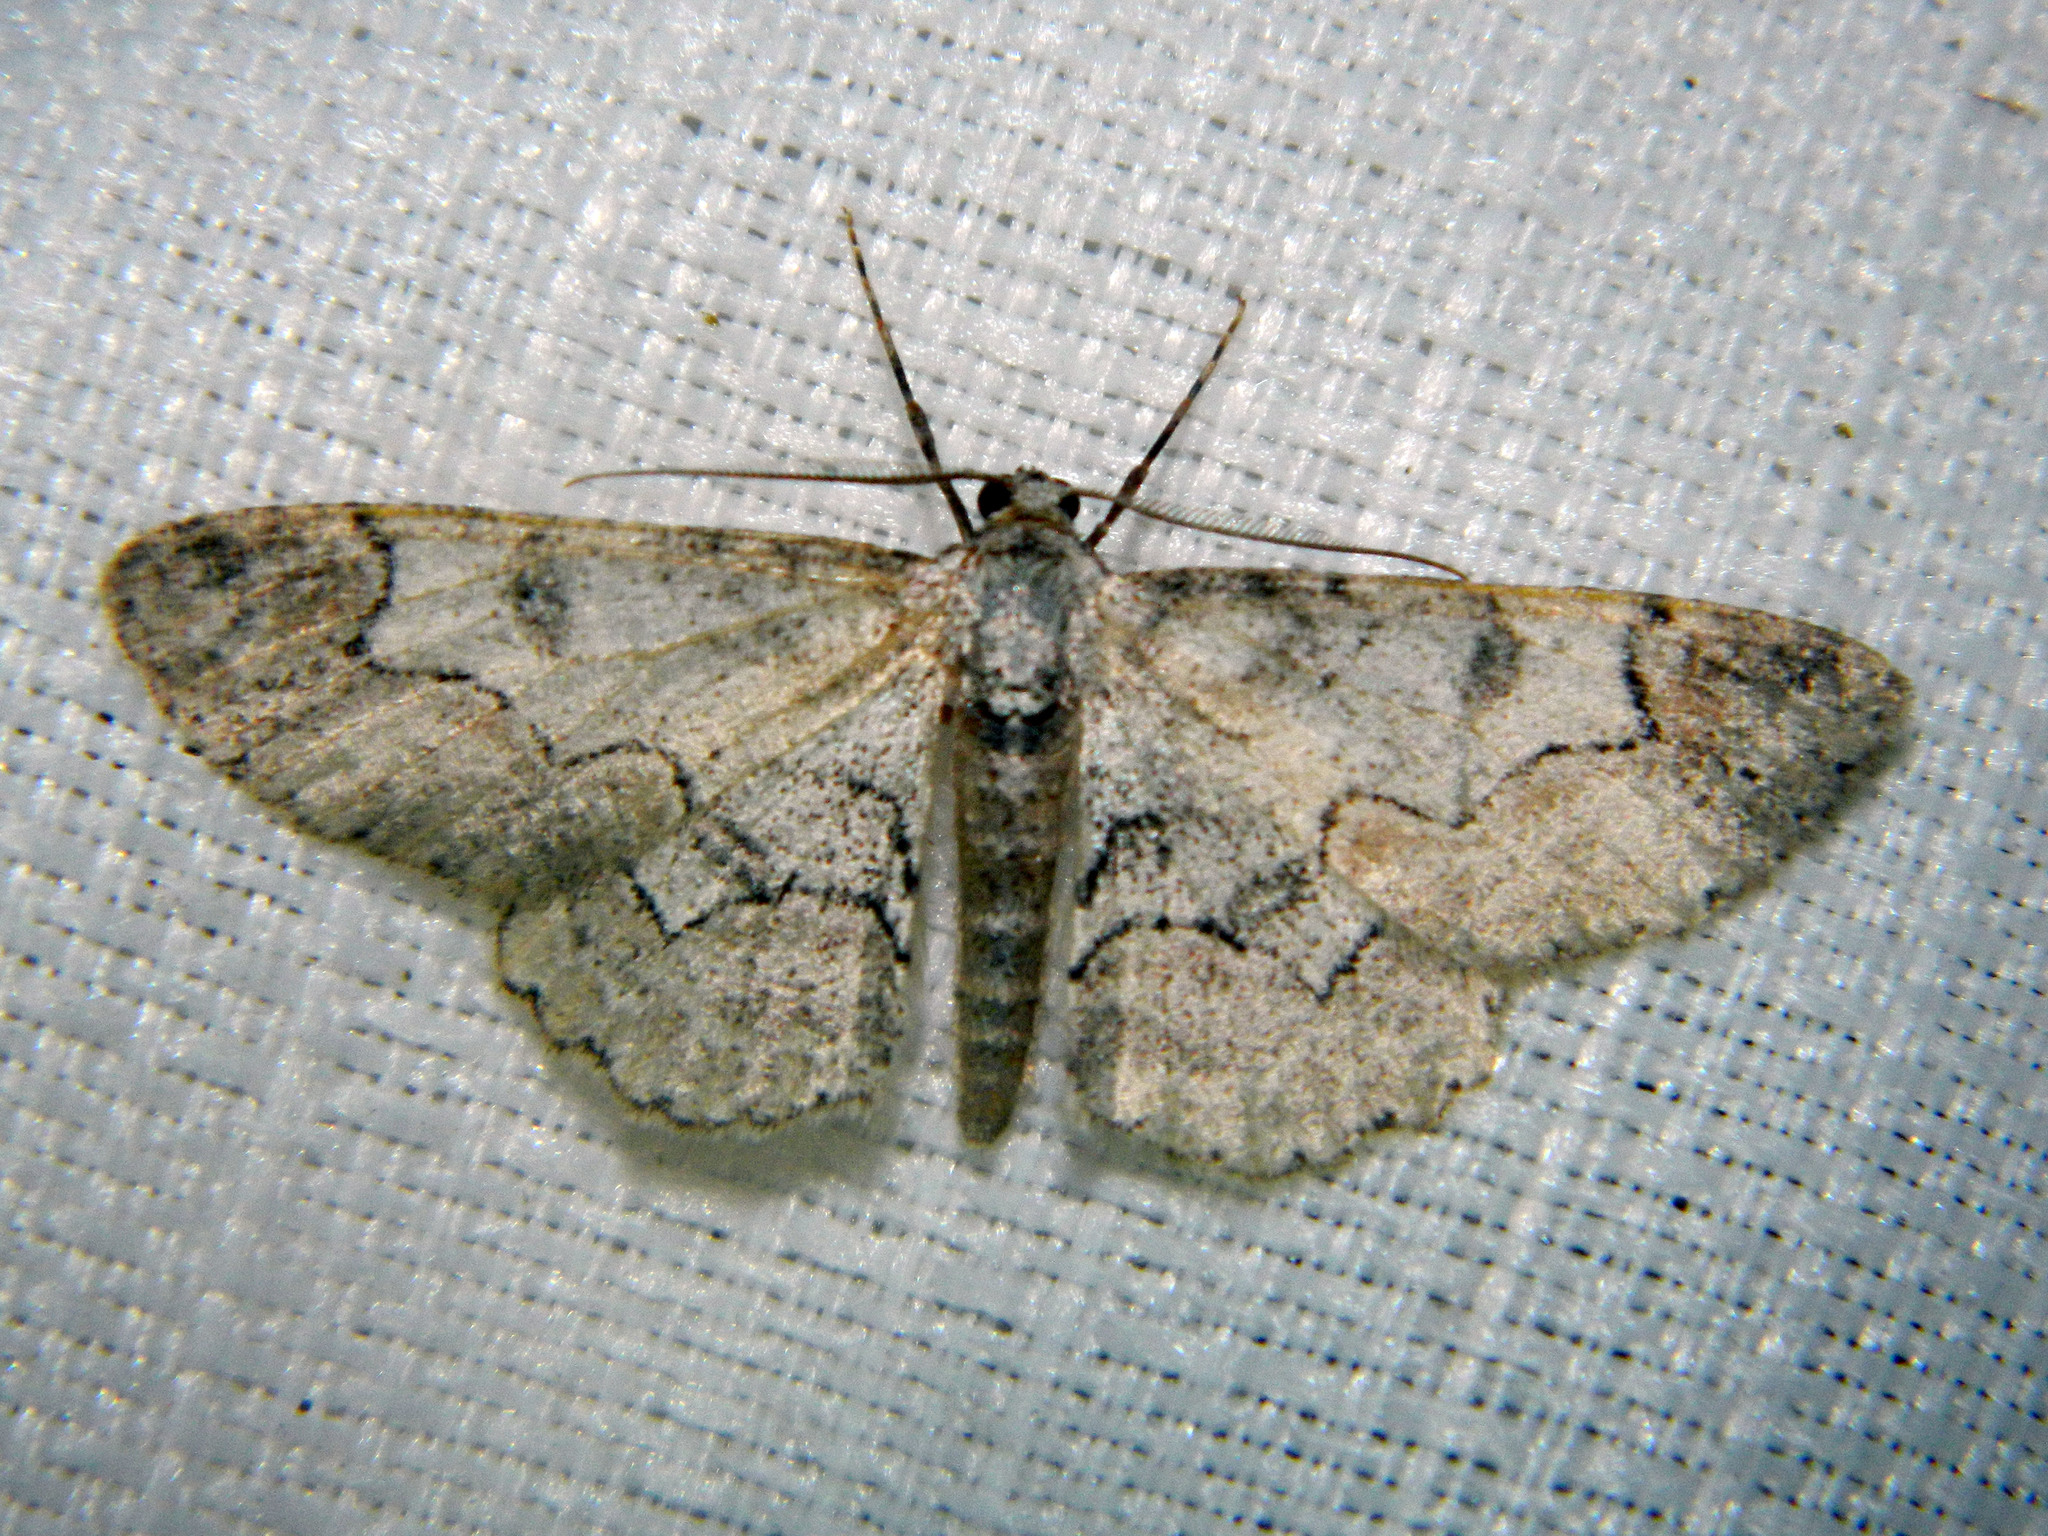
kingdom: Animalia
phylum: Arthropoda
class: Insecta
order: Lepidoptera
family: Geometridae
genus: Iridopsis
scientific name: Iridopsis larvaria
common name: Bent-line gray
